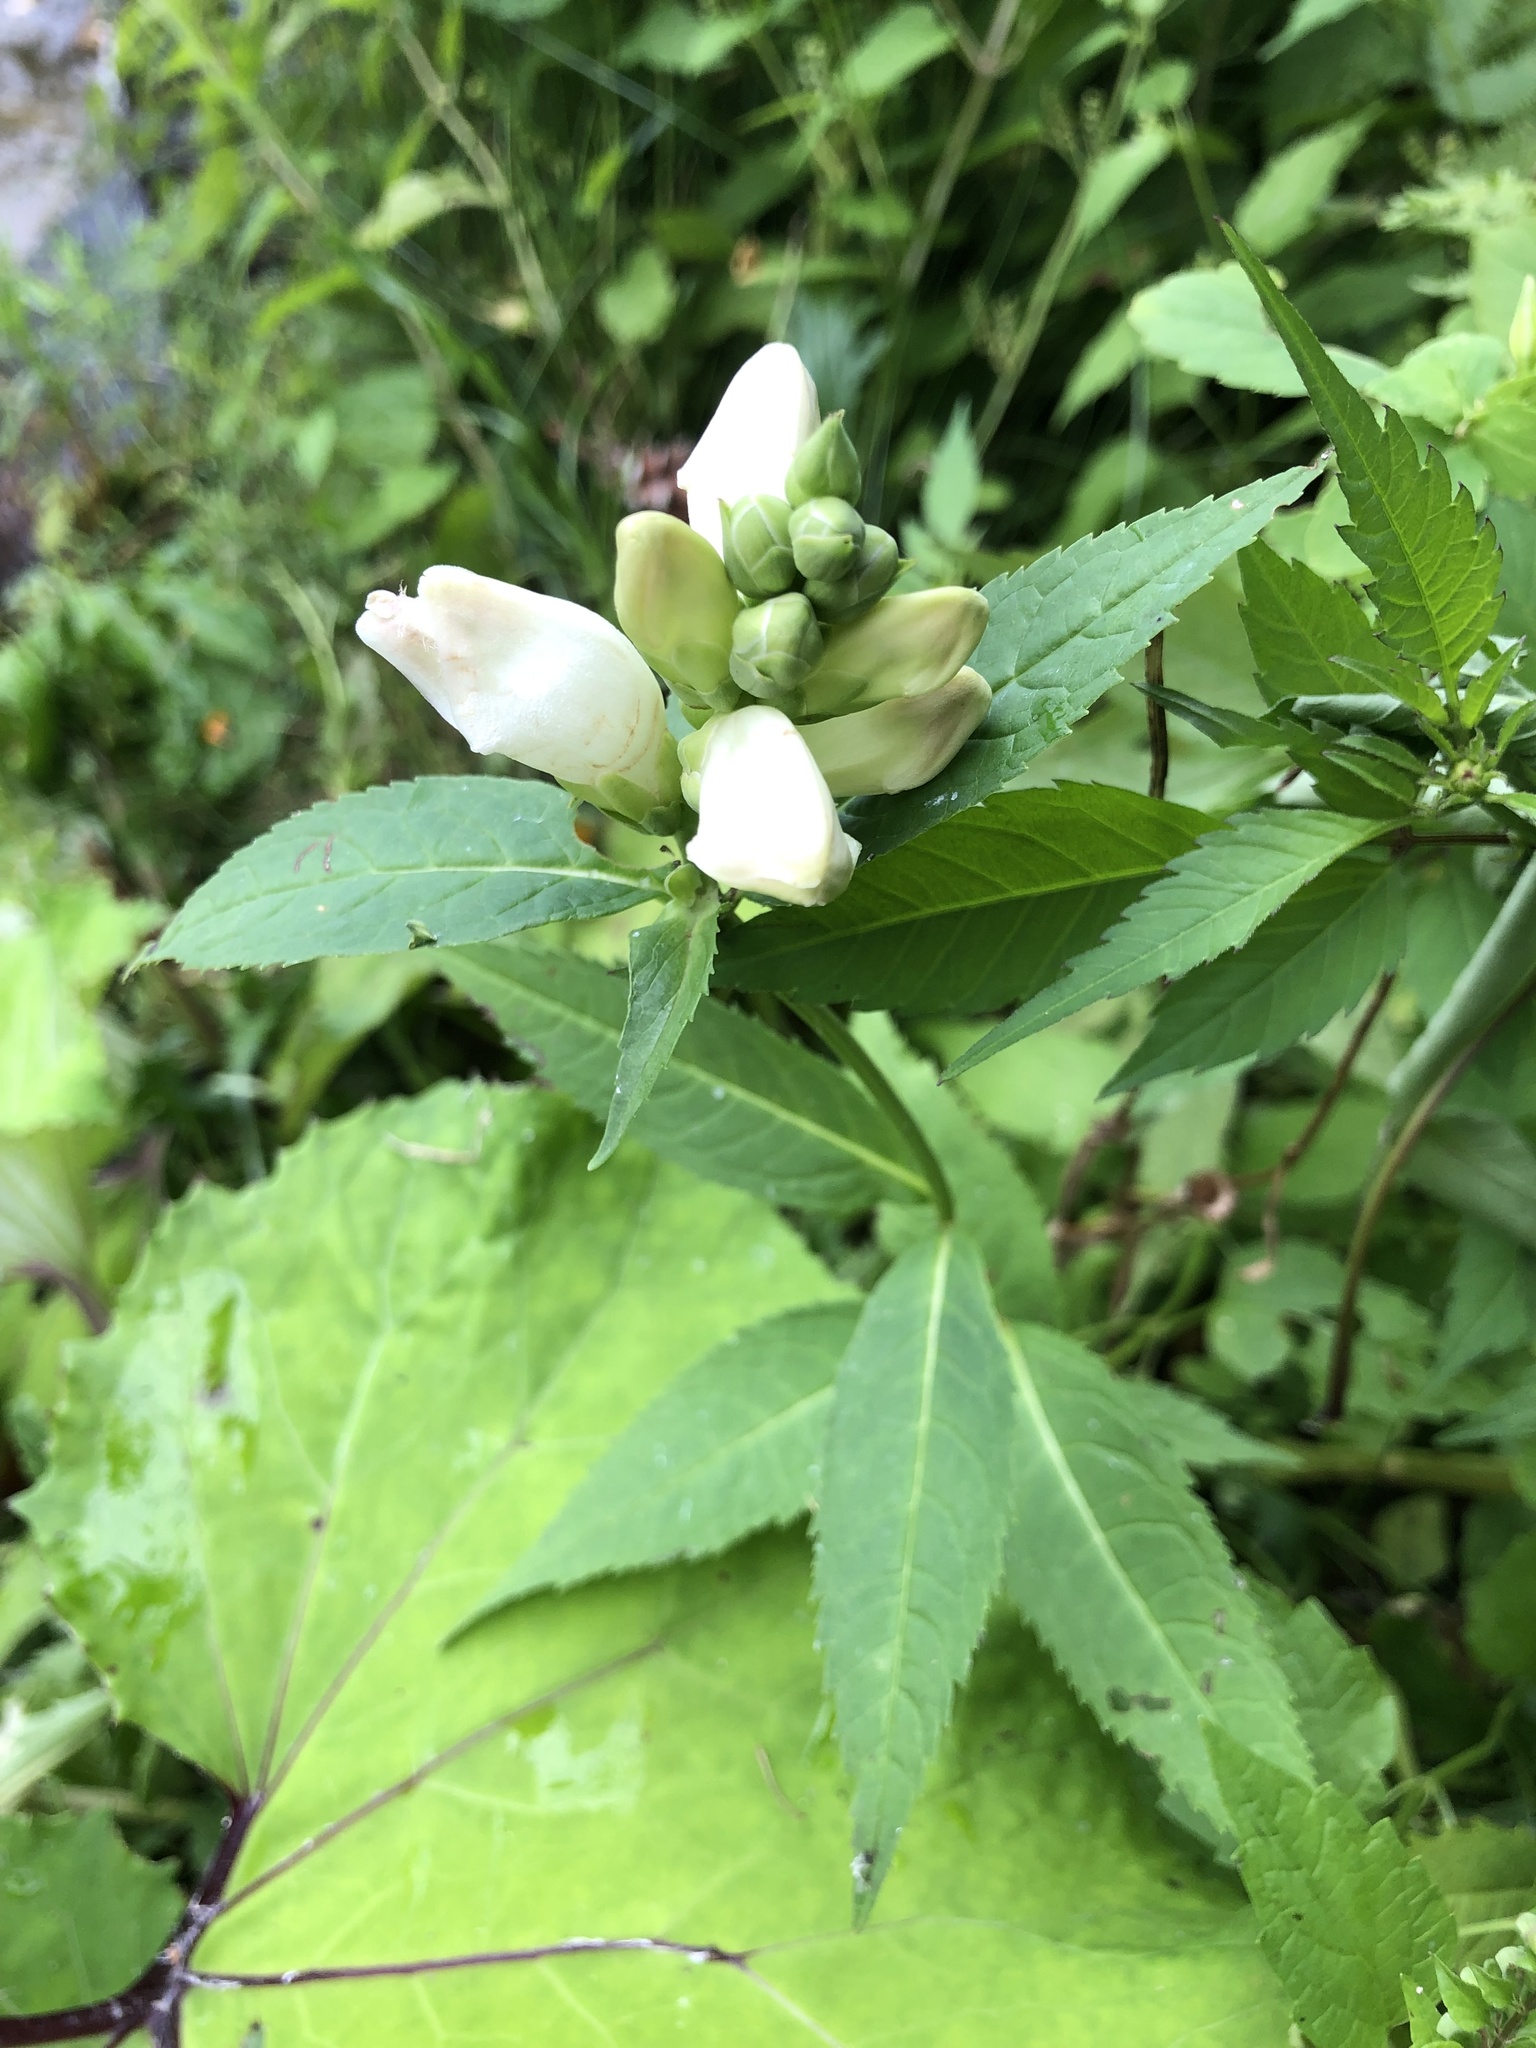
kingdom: Plantae
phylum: Tracheophyta
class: Magnoliopsida
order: Lamiales
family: Plantaginaceae
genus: Chelone
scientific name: Chelone glabra
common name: Snakehead
